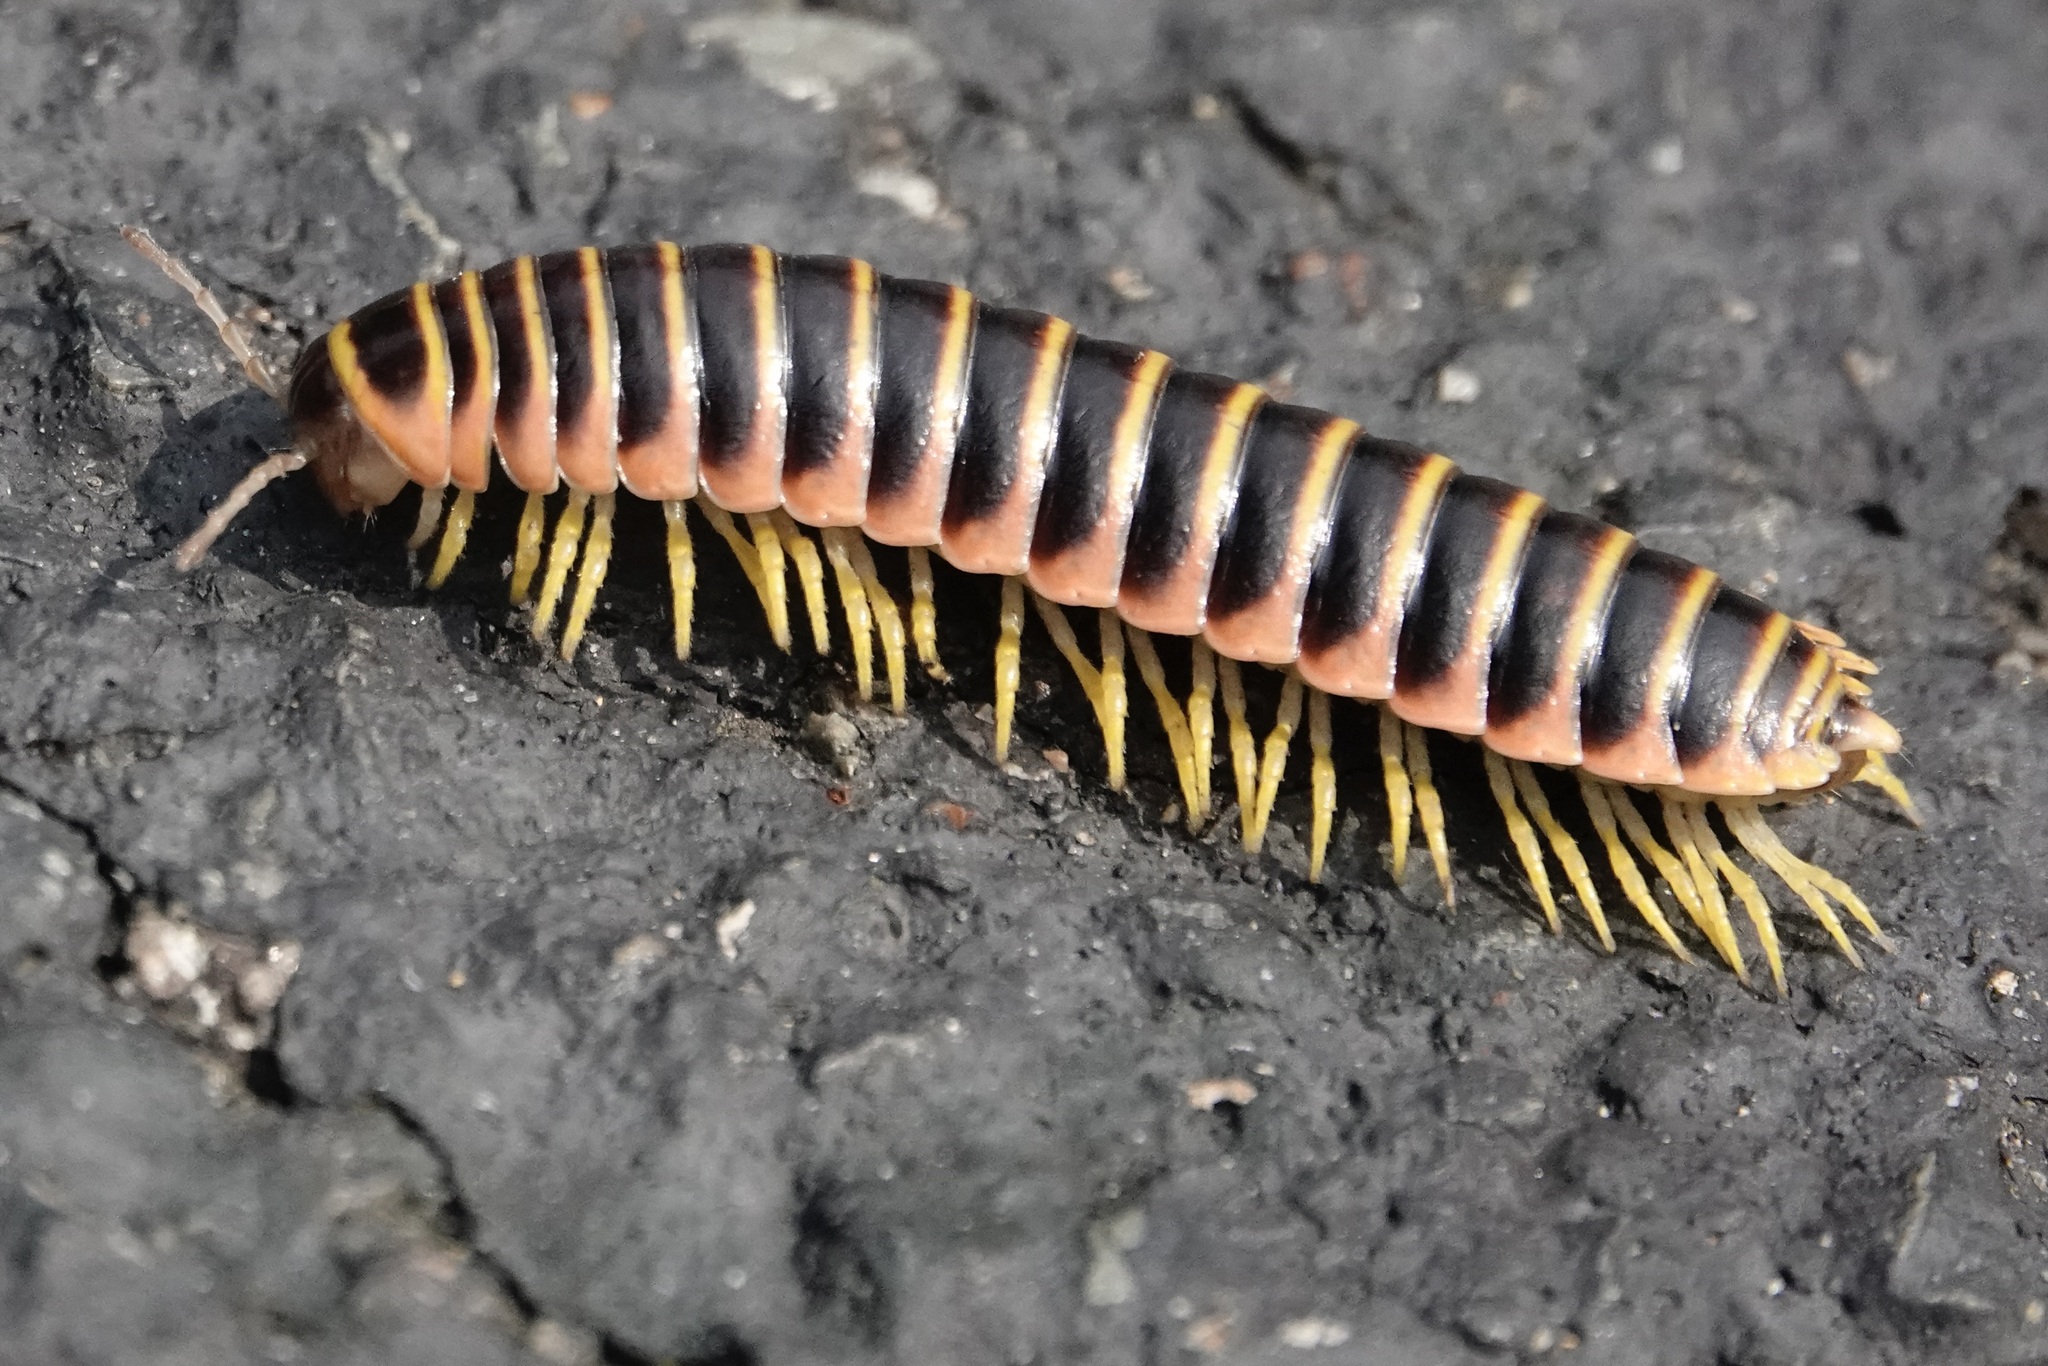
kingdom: Animalia
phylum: Arthropoda
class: Diplopoda
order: Polydesmida
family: Xystodesmidae
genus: Apheloria
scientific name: Apheloria virginiensis
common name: Black-and-gold flat millipede
